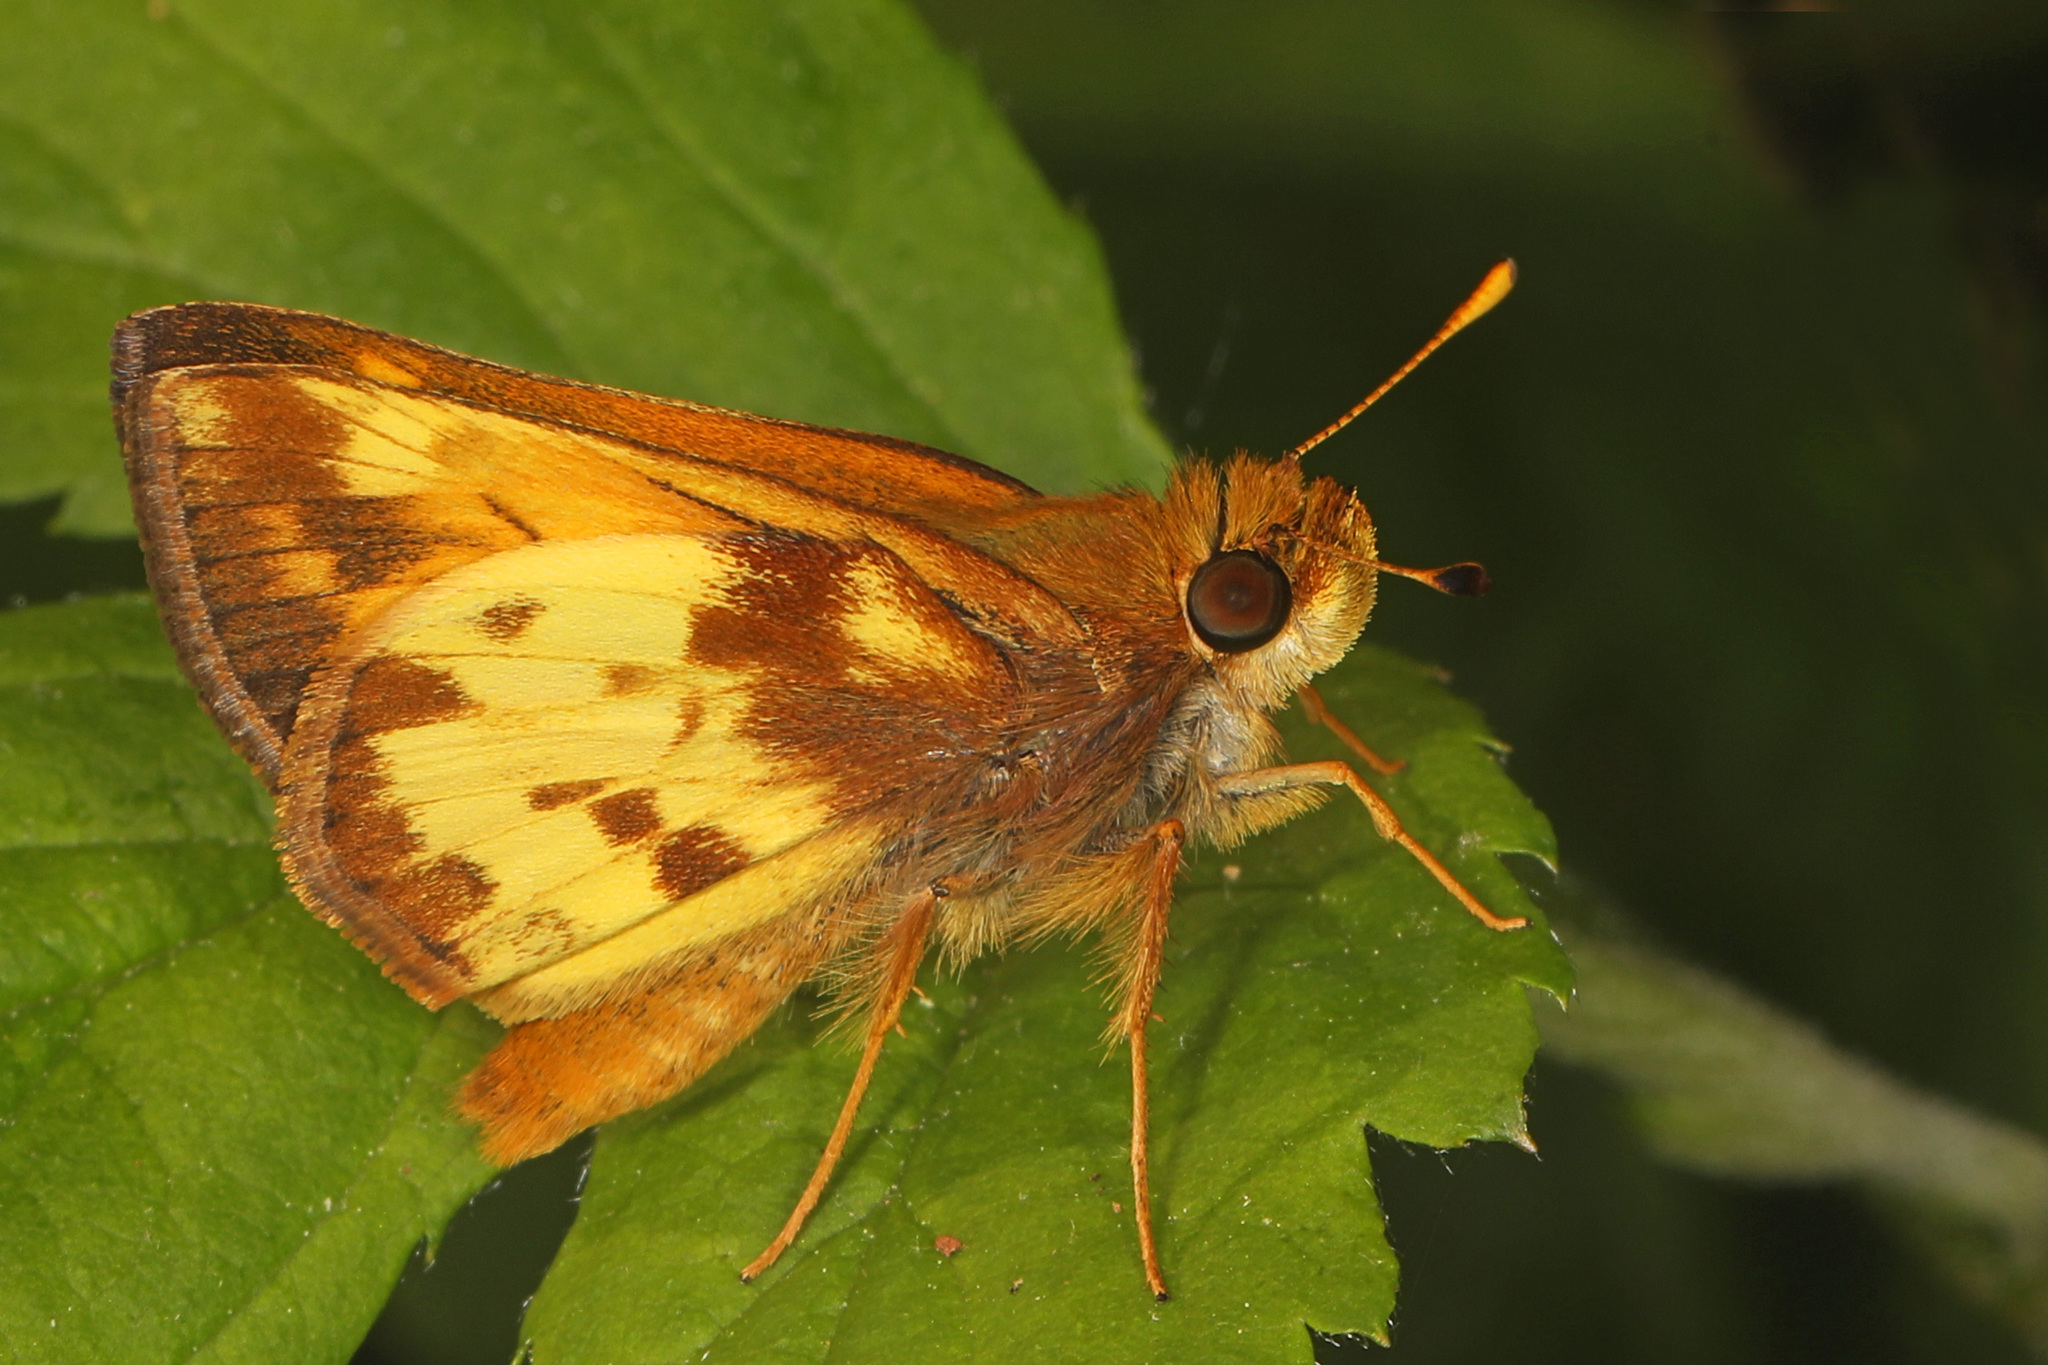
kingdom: Animalia
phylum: Arthropoda
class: Insecta
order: Lepidoptera
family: Hesperiidae
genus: Lon
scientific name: Lon zabulon
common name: Zabulon skipper
